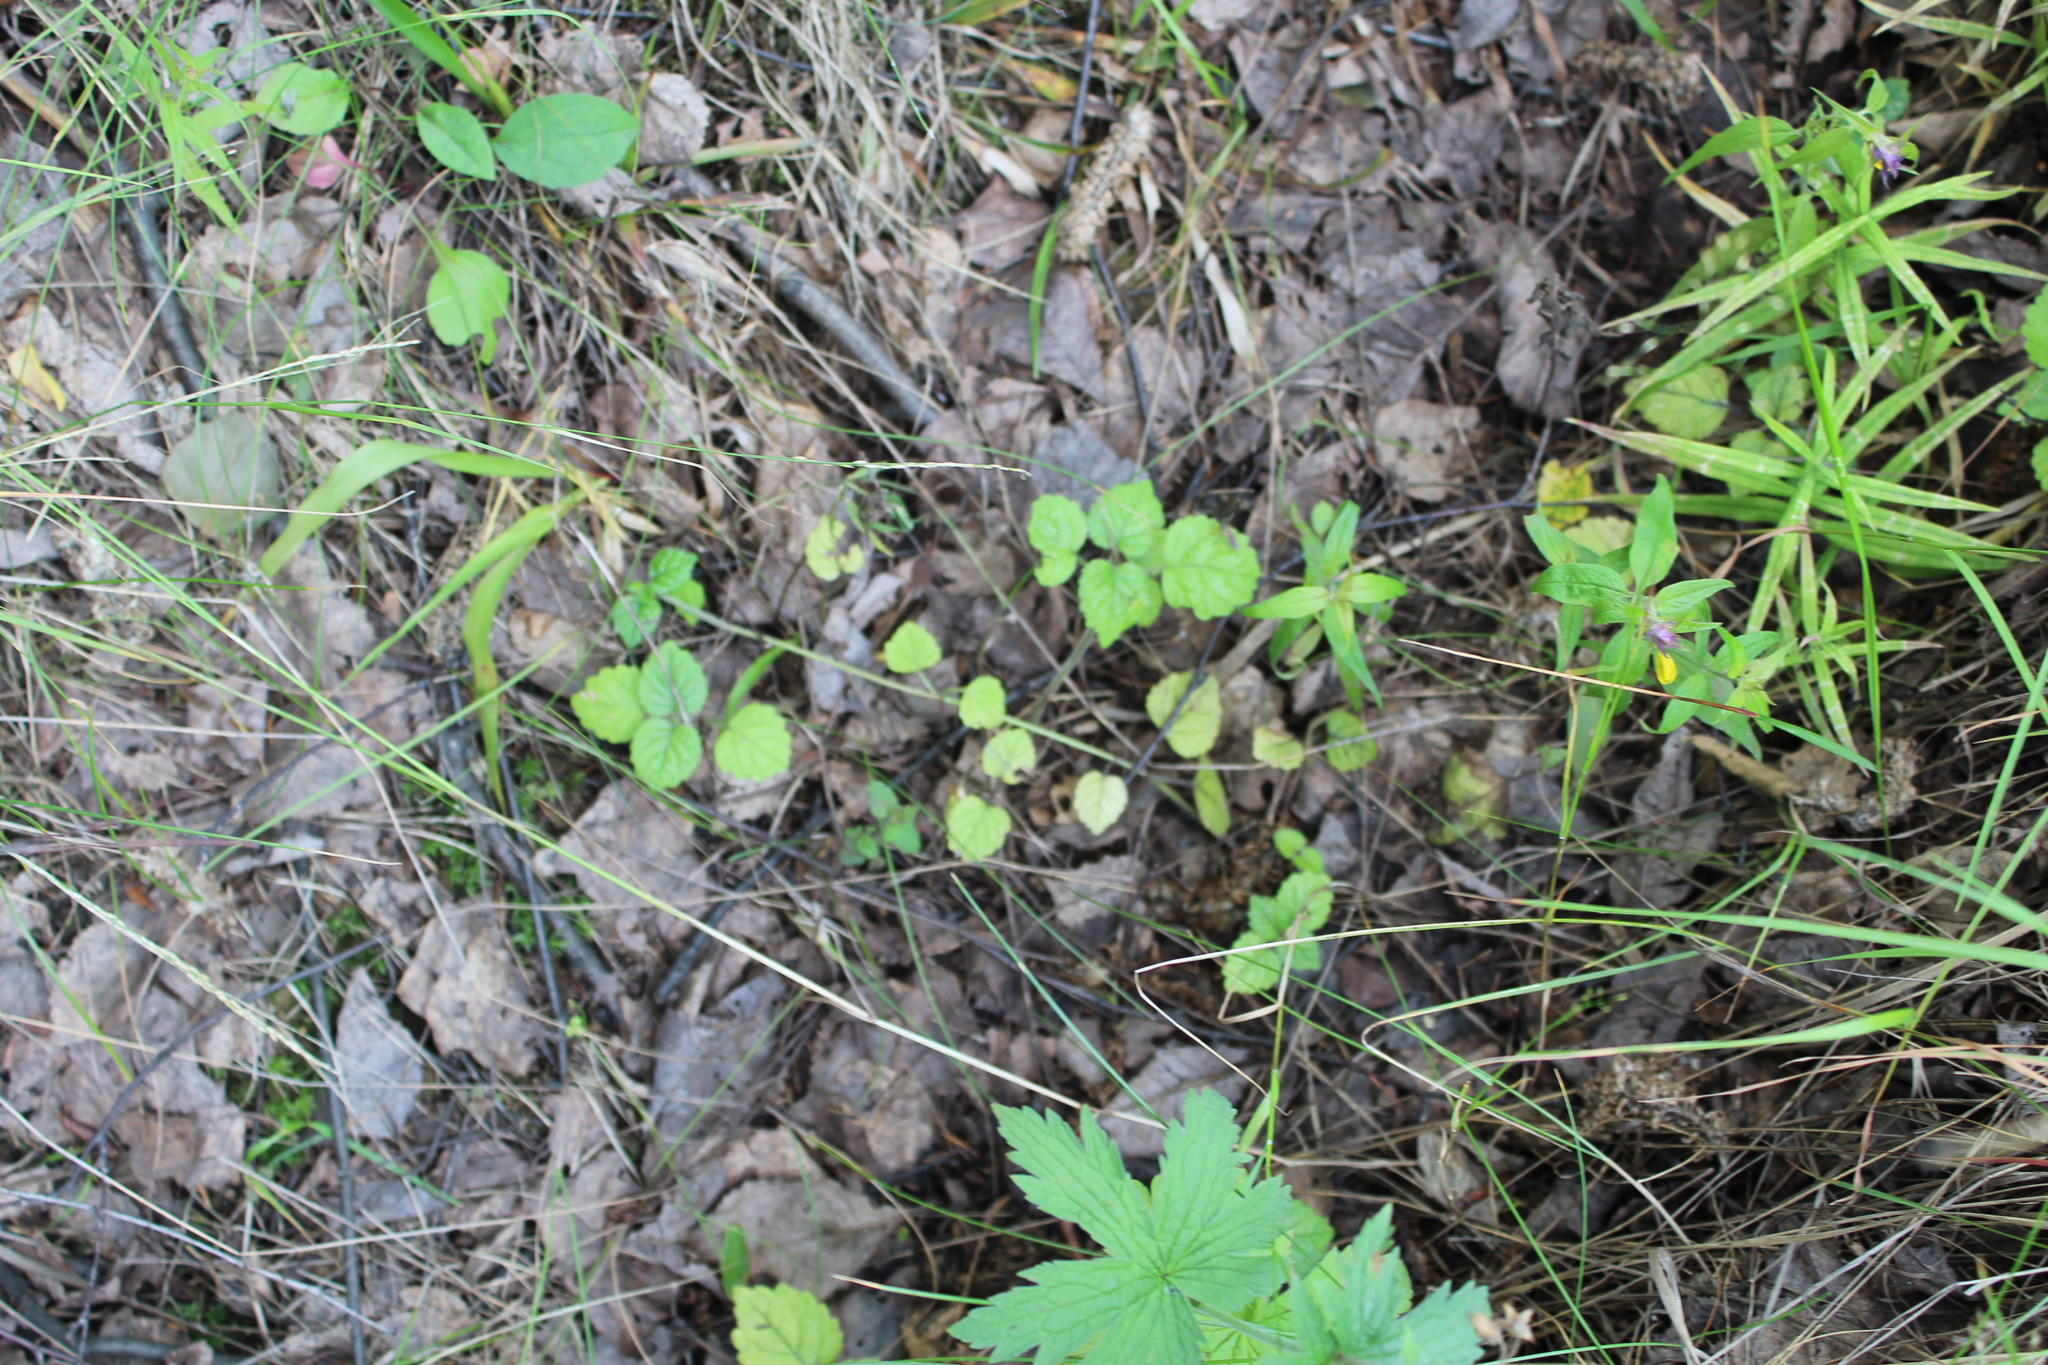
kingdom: Plantae
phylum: Tracheophyta
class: Magnoliopsida
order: Lamiales
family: Lamiaceae
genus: Lamium
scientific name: Lamium galeobdolon
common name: Yellow archangel
